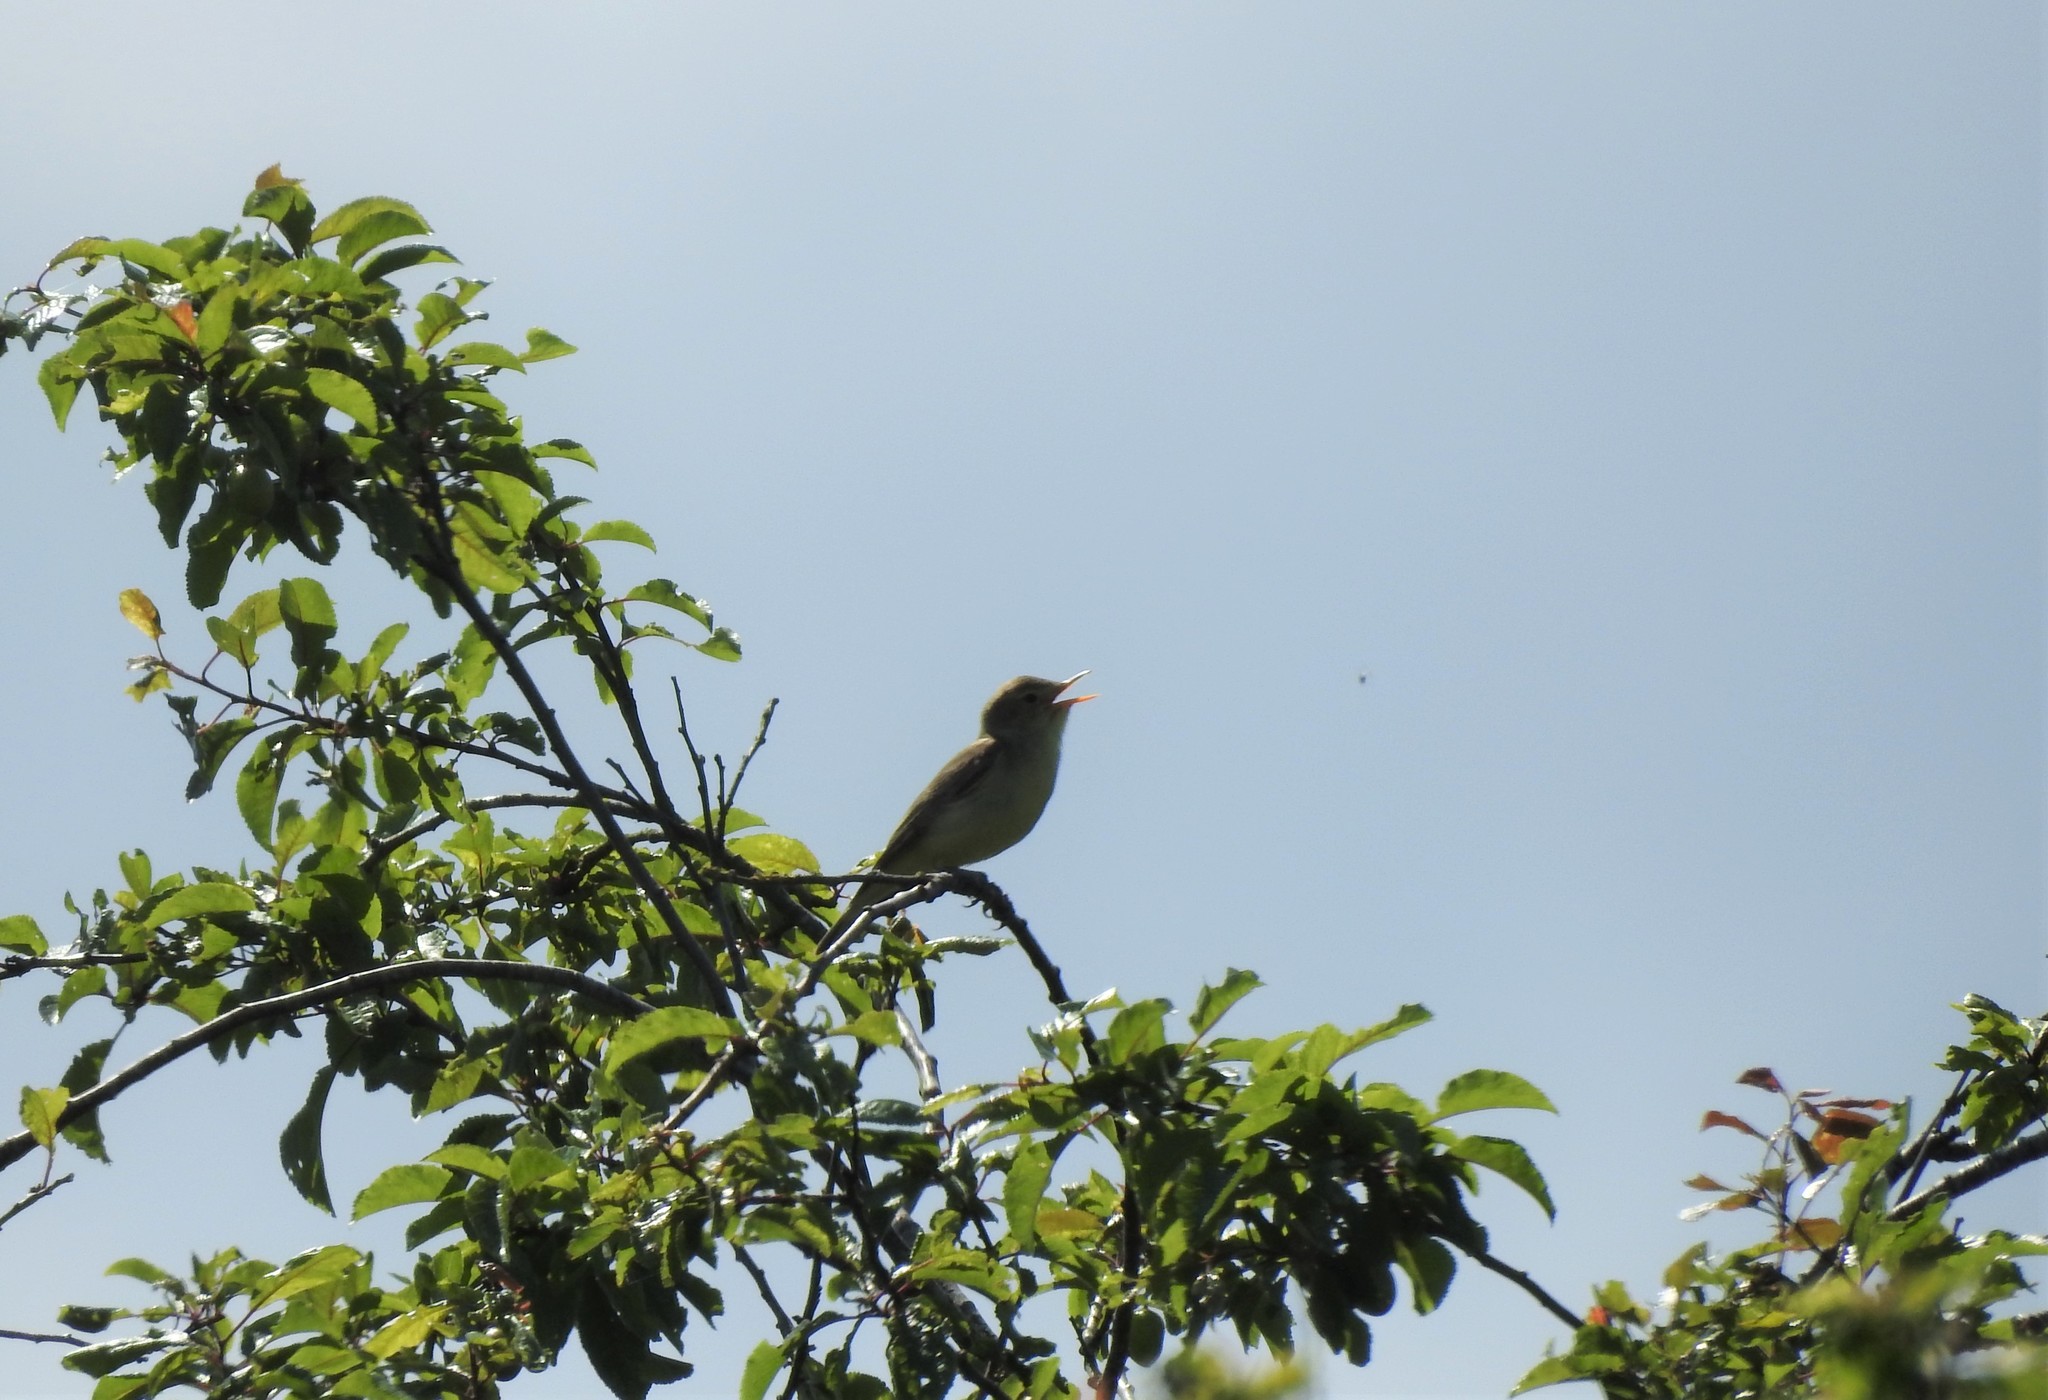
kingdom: Animalia
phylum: Chordata
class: Aves
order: Passeriformes
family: Acrocephalidae
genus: Hippolais
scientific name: Hippolais icterina
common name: Icterine warbler
